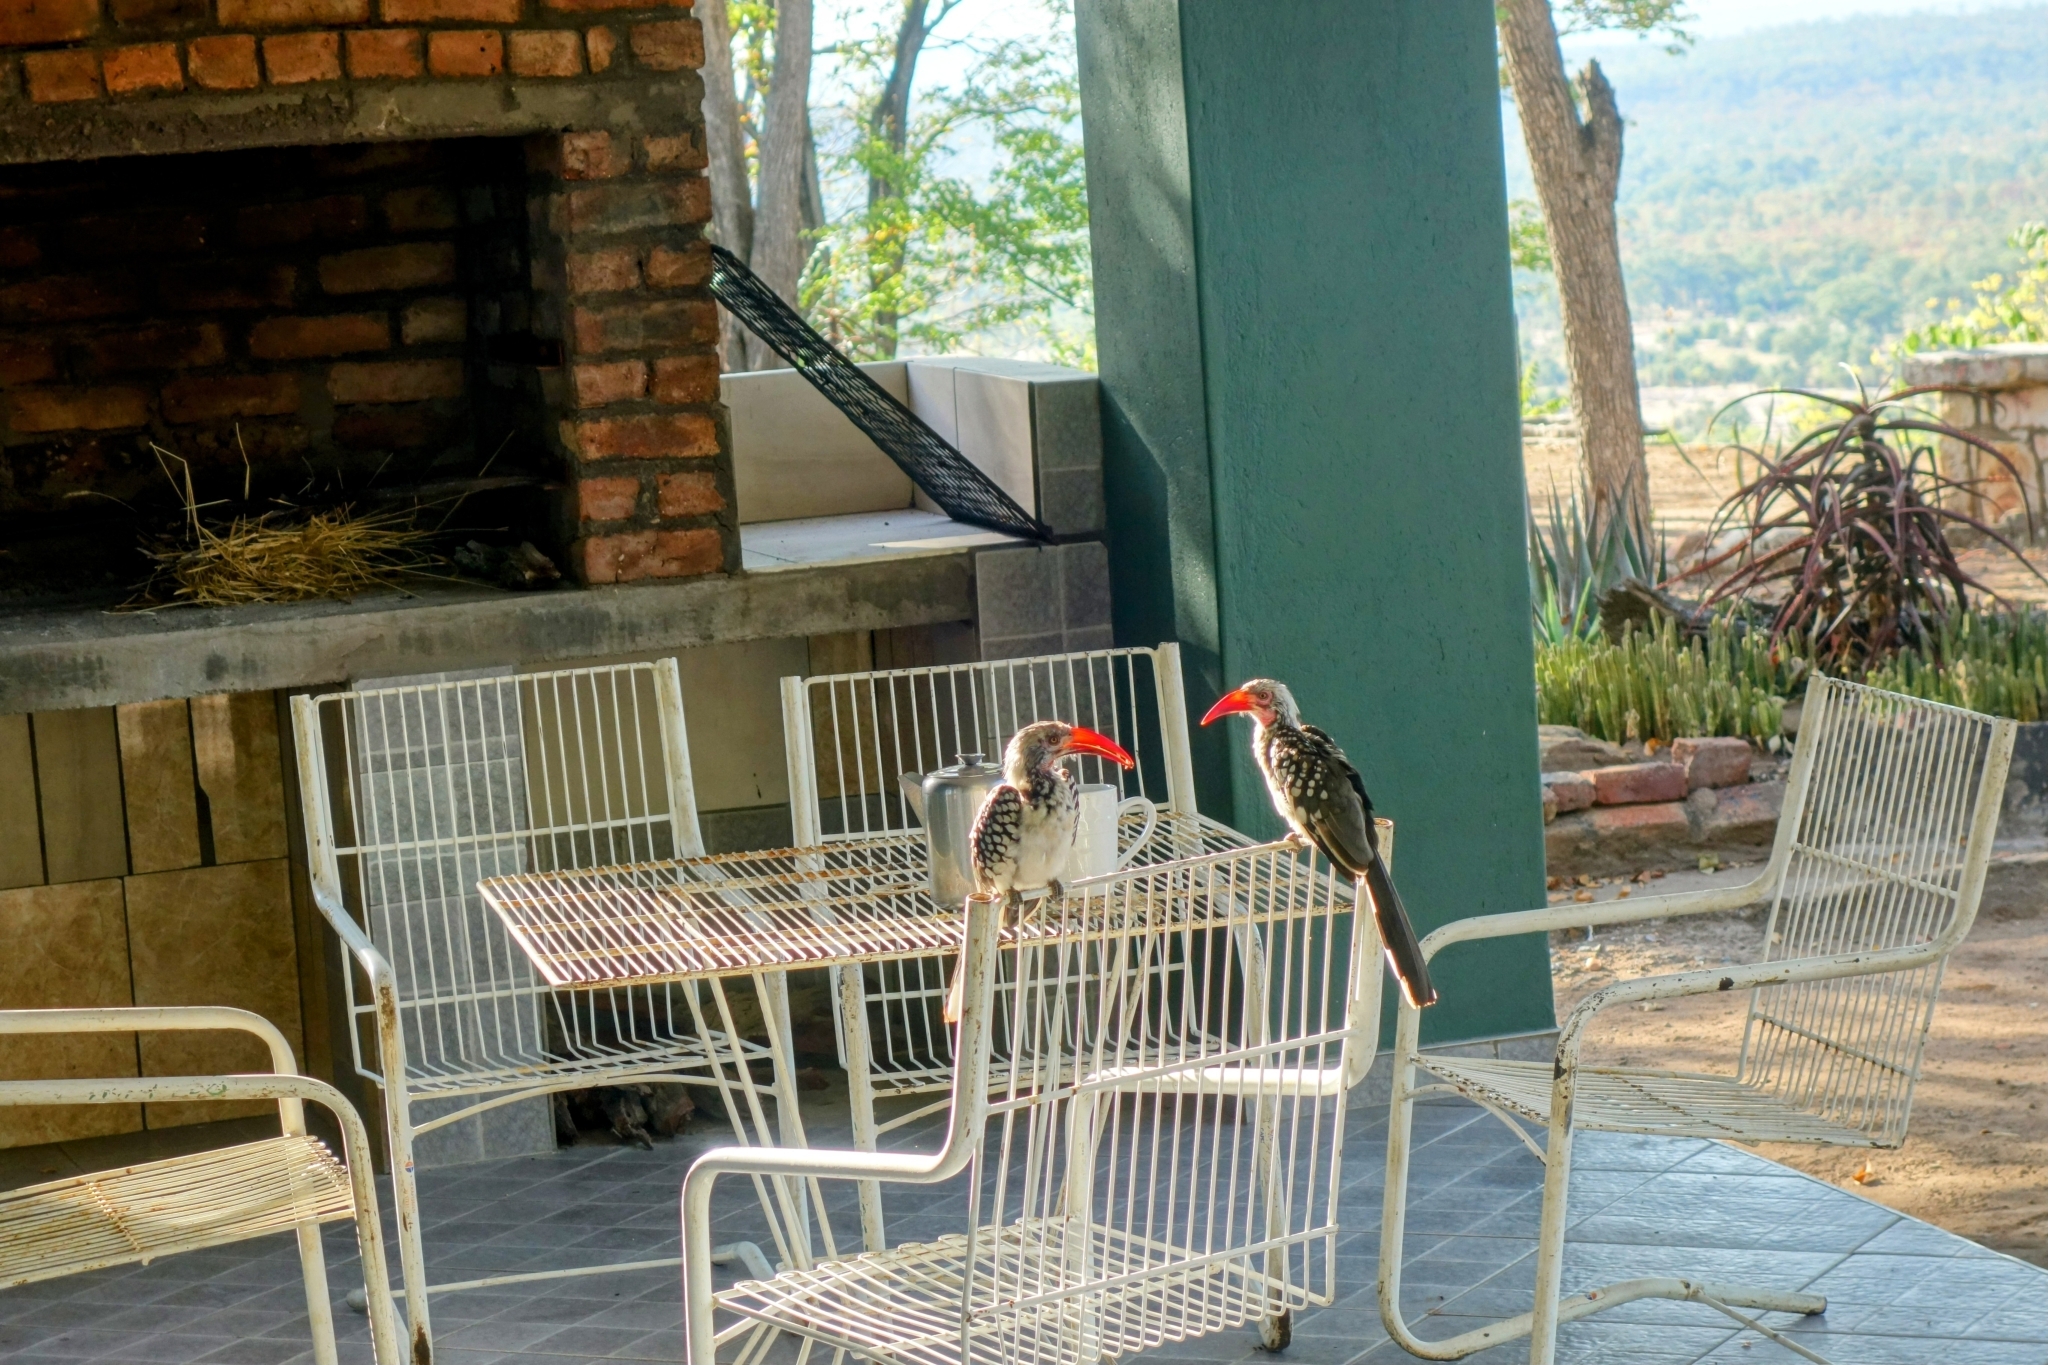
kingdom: Animalia
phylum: Chordata
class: Aves
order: Bucerotiformes
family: Bucerotidae
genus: Tockus
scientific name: Tockus rufirostris
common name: Southern red-billed hornbill
